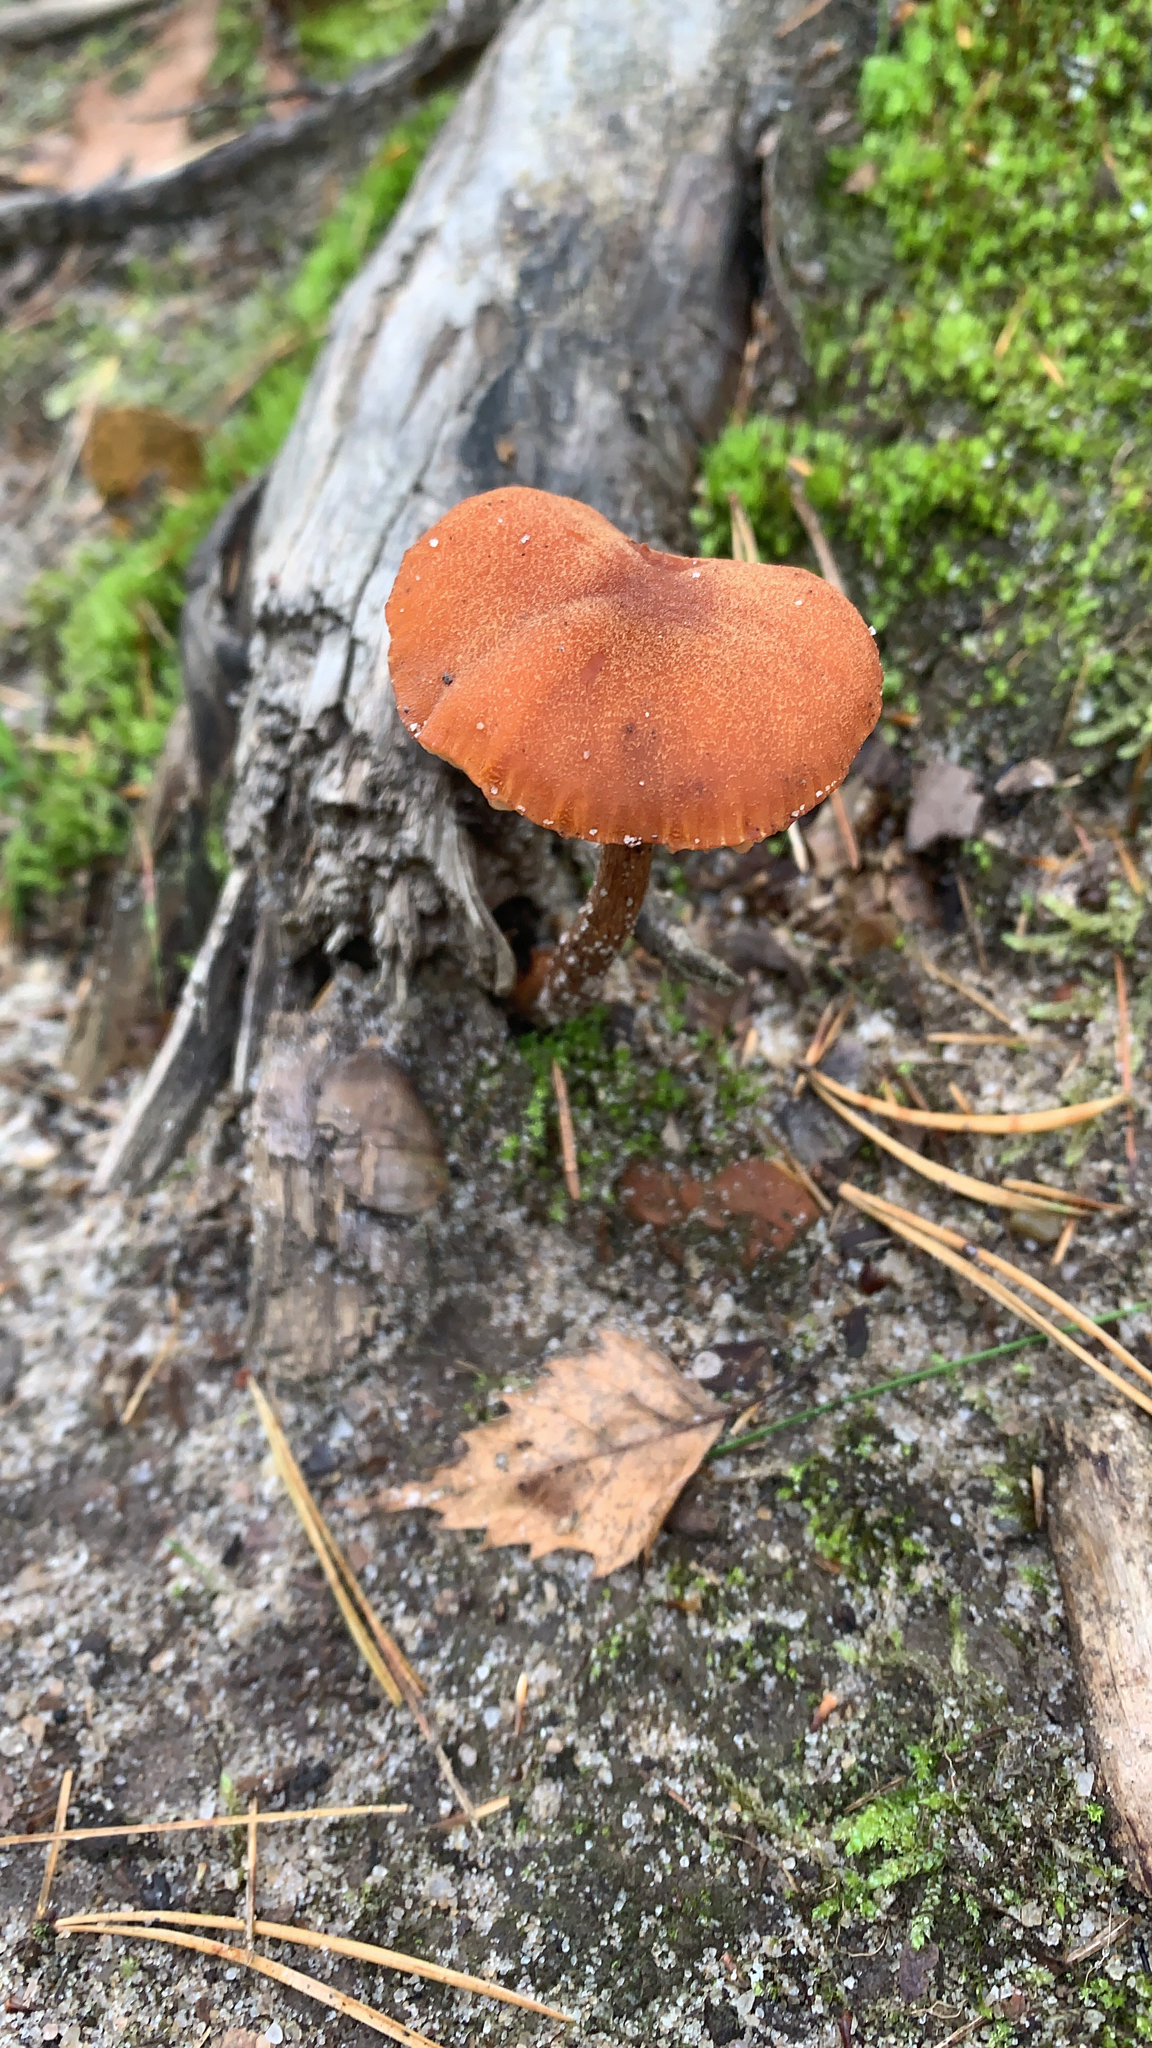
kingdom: Fungi
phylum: Basidiomycota
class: Agaricomycetes
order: Agaricales
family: Hydnangiaceae
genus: Laccaria
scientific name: Laccaria laccata
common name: Deceiver
